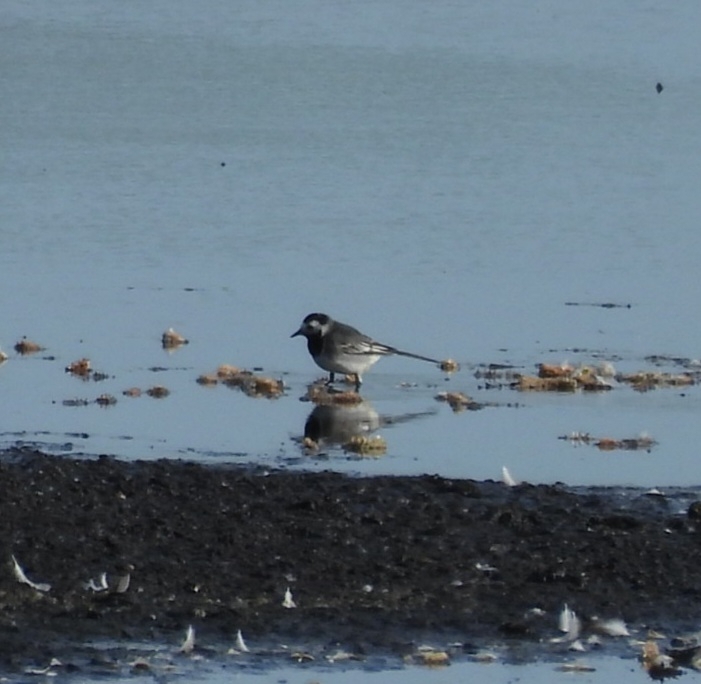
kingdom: Animalia
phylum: Chordata
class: Aves
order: Passeriformes
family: Motacillidae
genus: Motacilla
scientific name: Motacilla alba
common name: White wagtail
